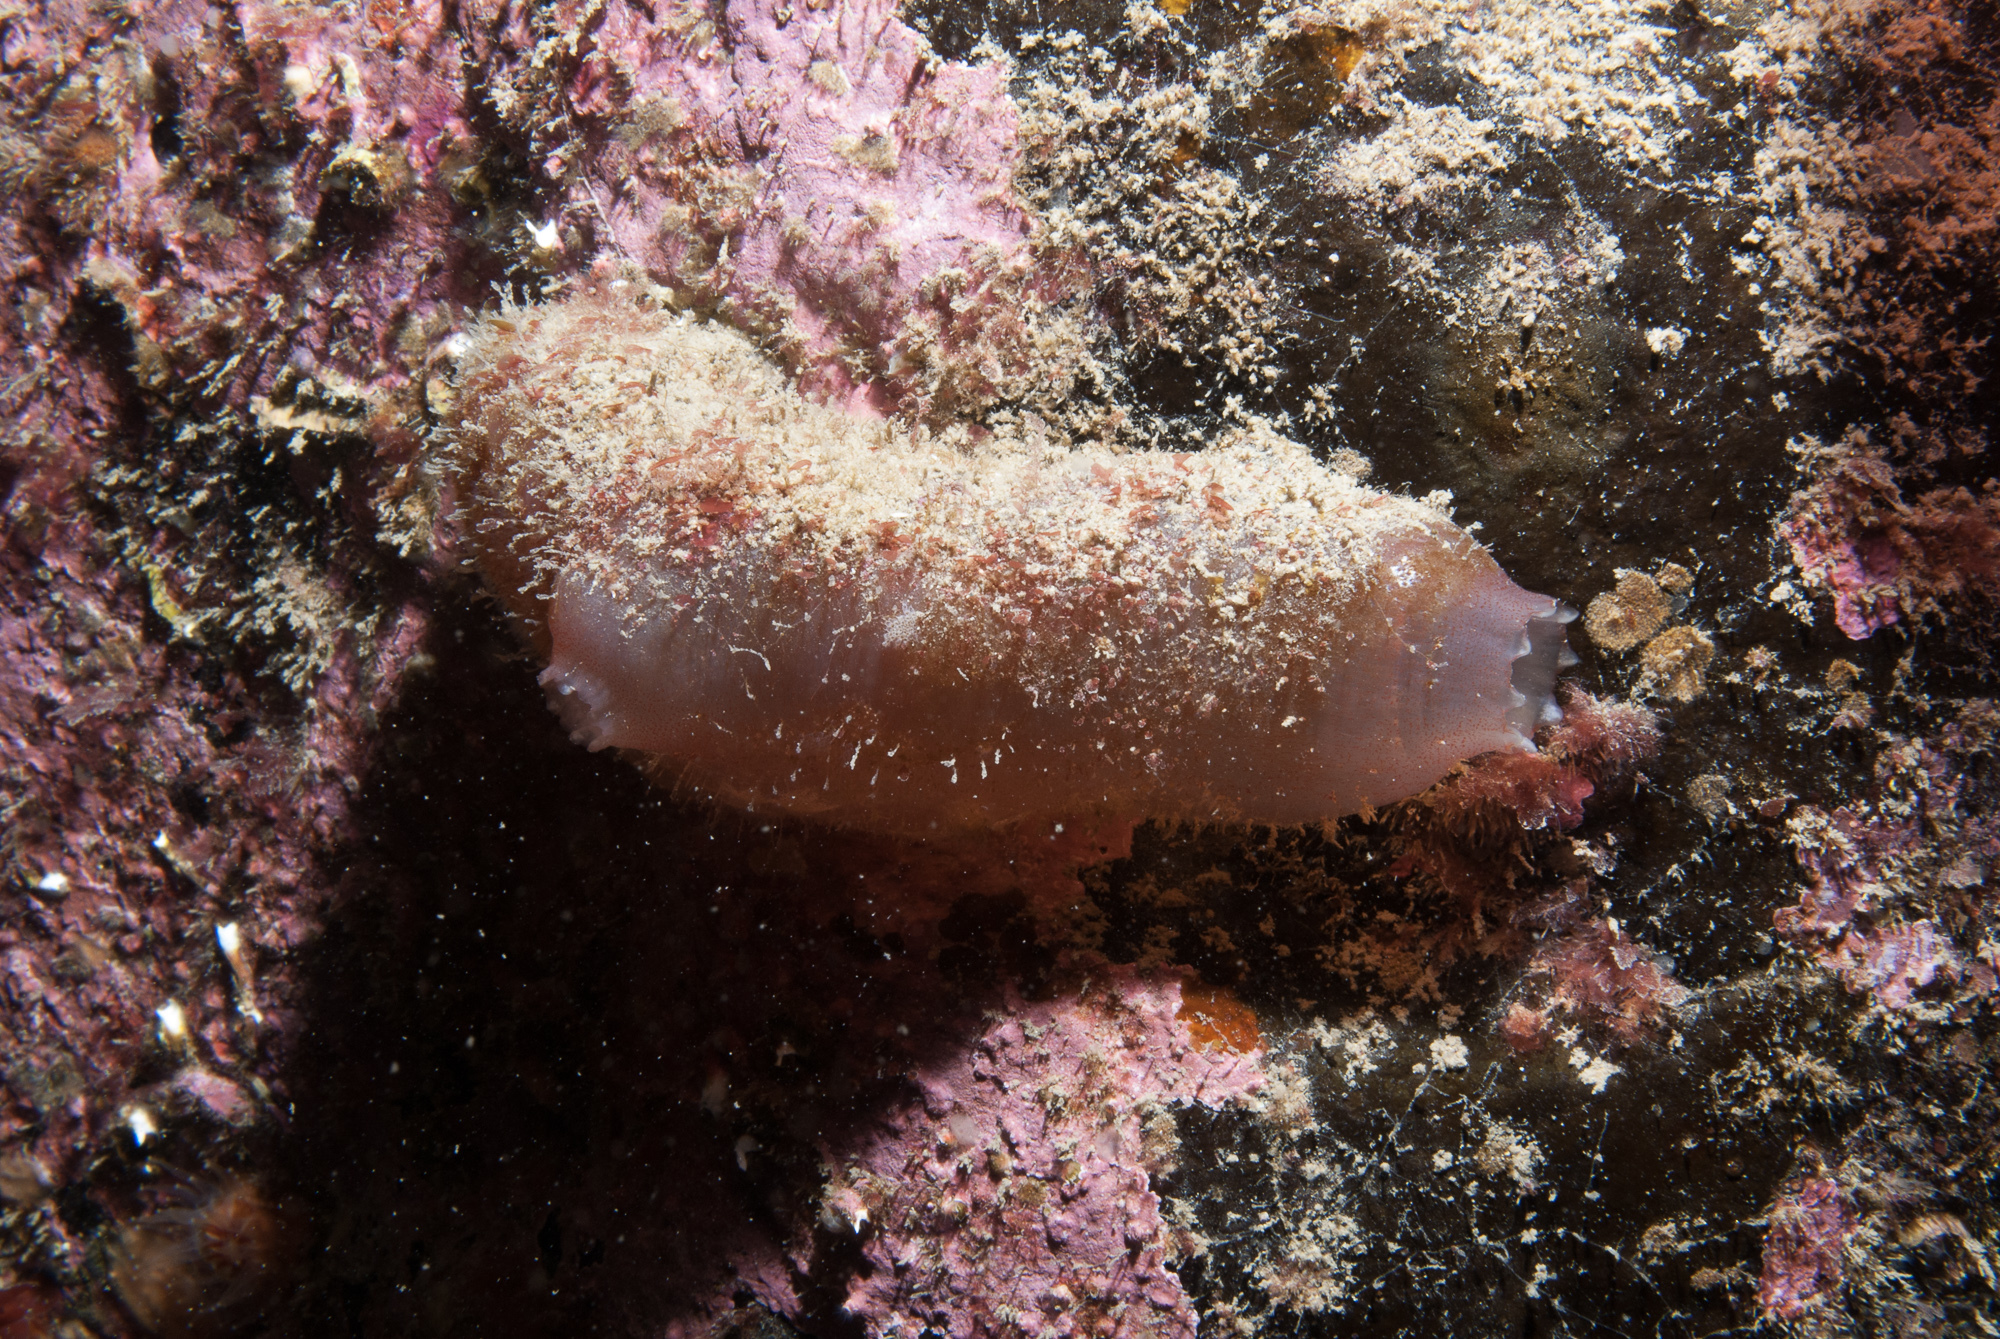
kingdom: Animalia
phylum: Chordata
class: Ascidiacea
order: Phlebobranchia
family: Ascidiidae
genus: Ascidia
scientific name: Ascidia mentula
